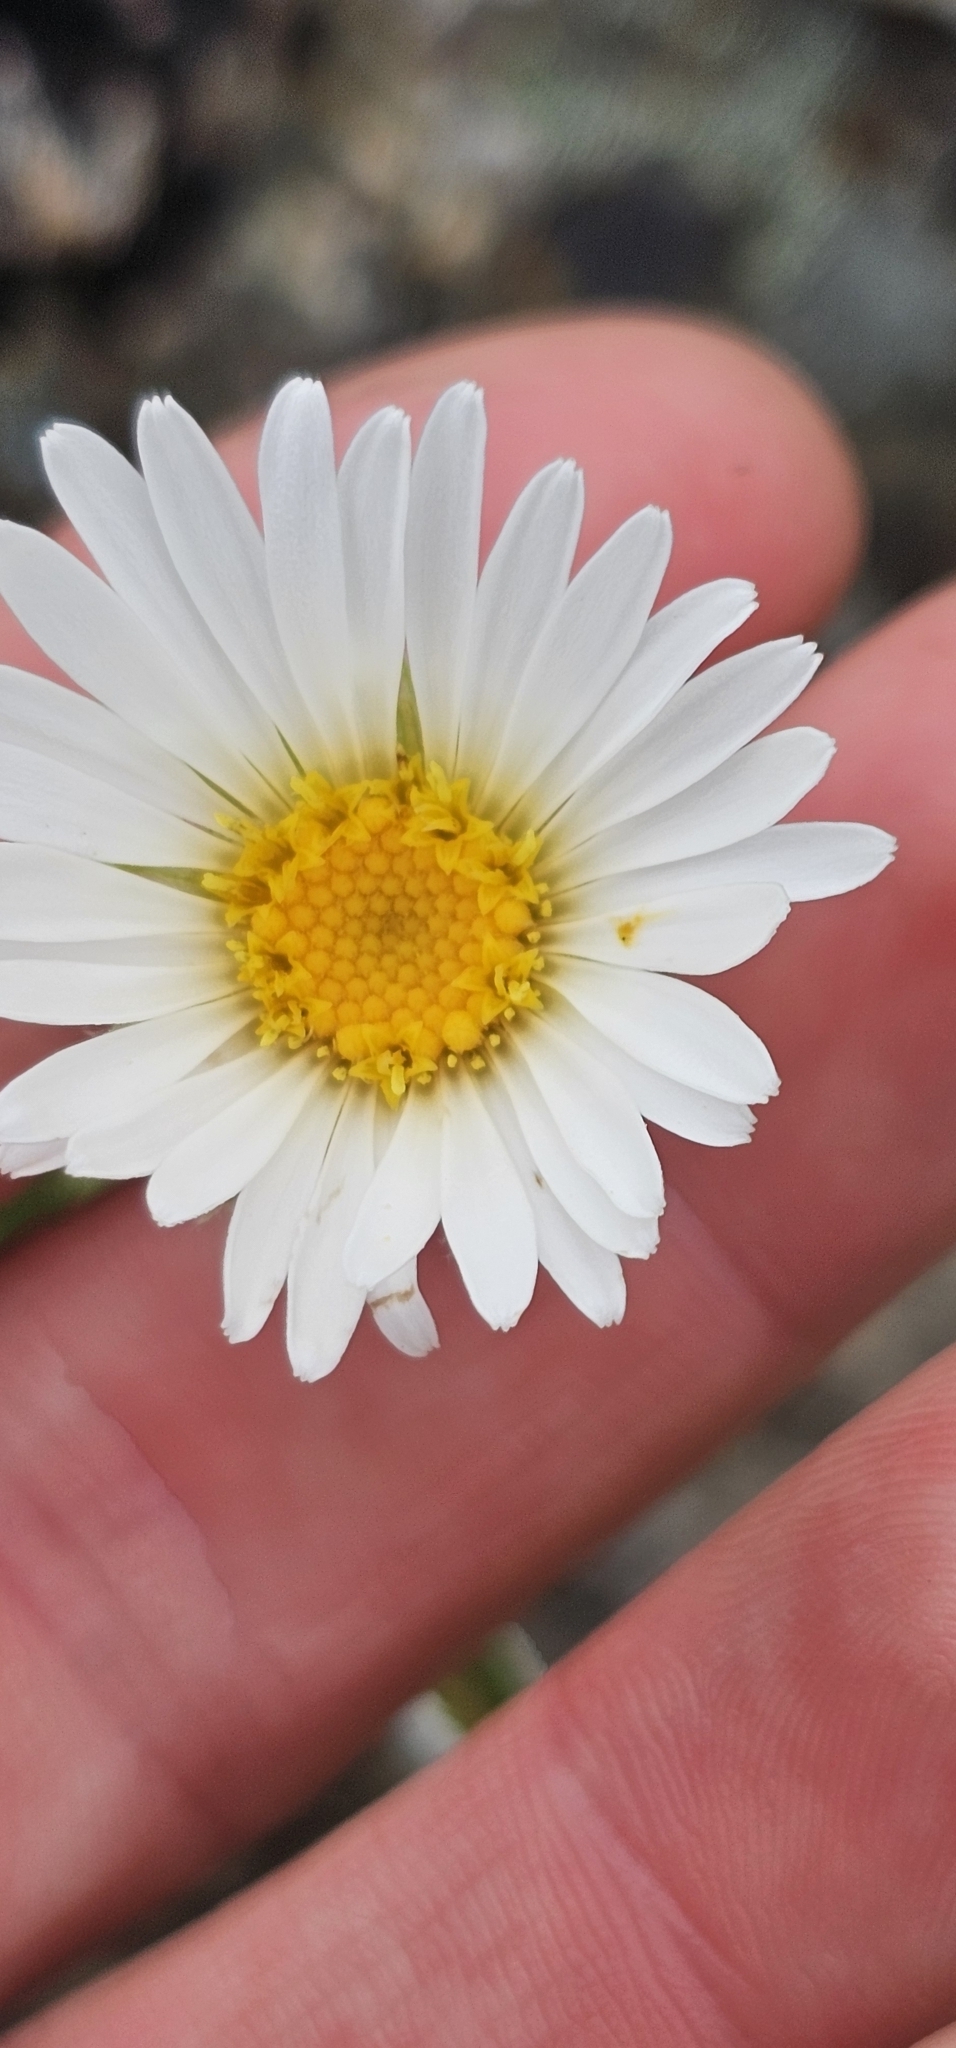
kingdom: Plantae
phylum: Tracheophyta
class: Magnoliopsida
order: Asterales
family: Asteraceae
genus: Celmisia
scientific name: Celmisia hieraciifolia
